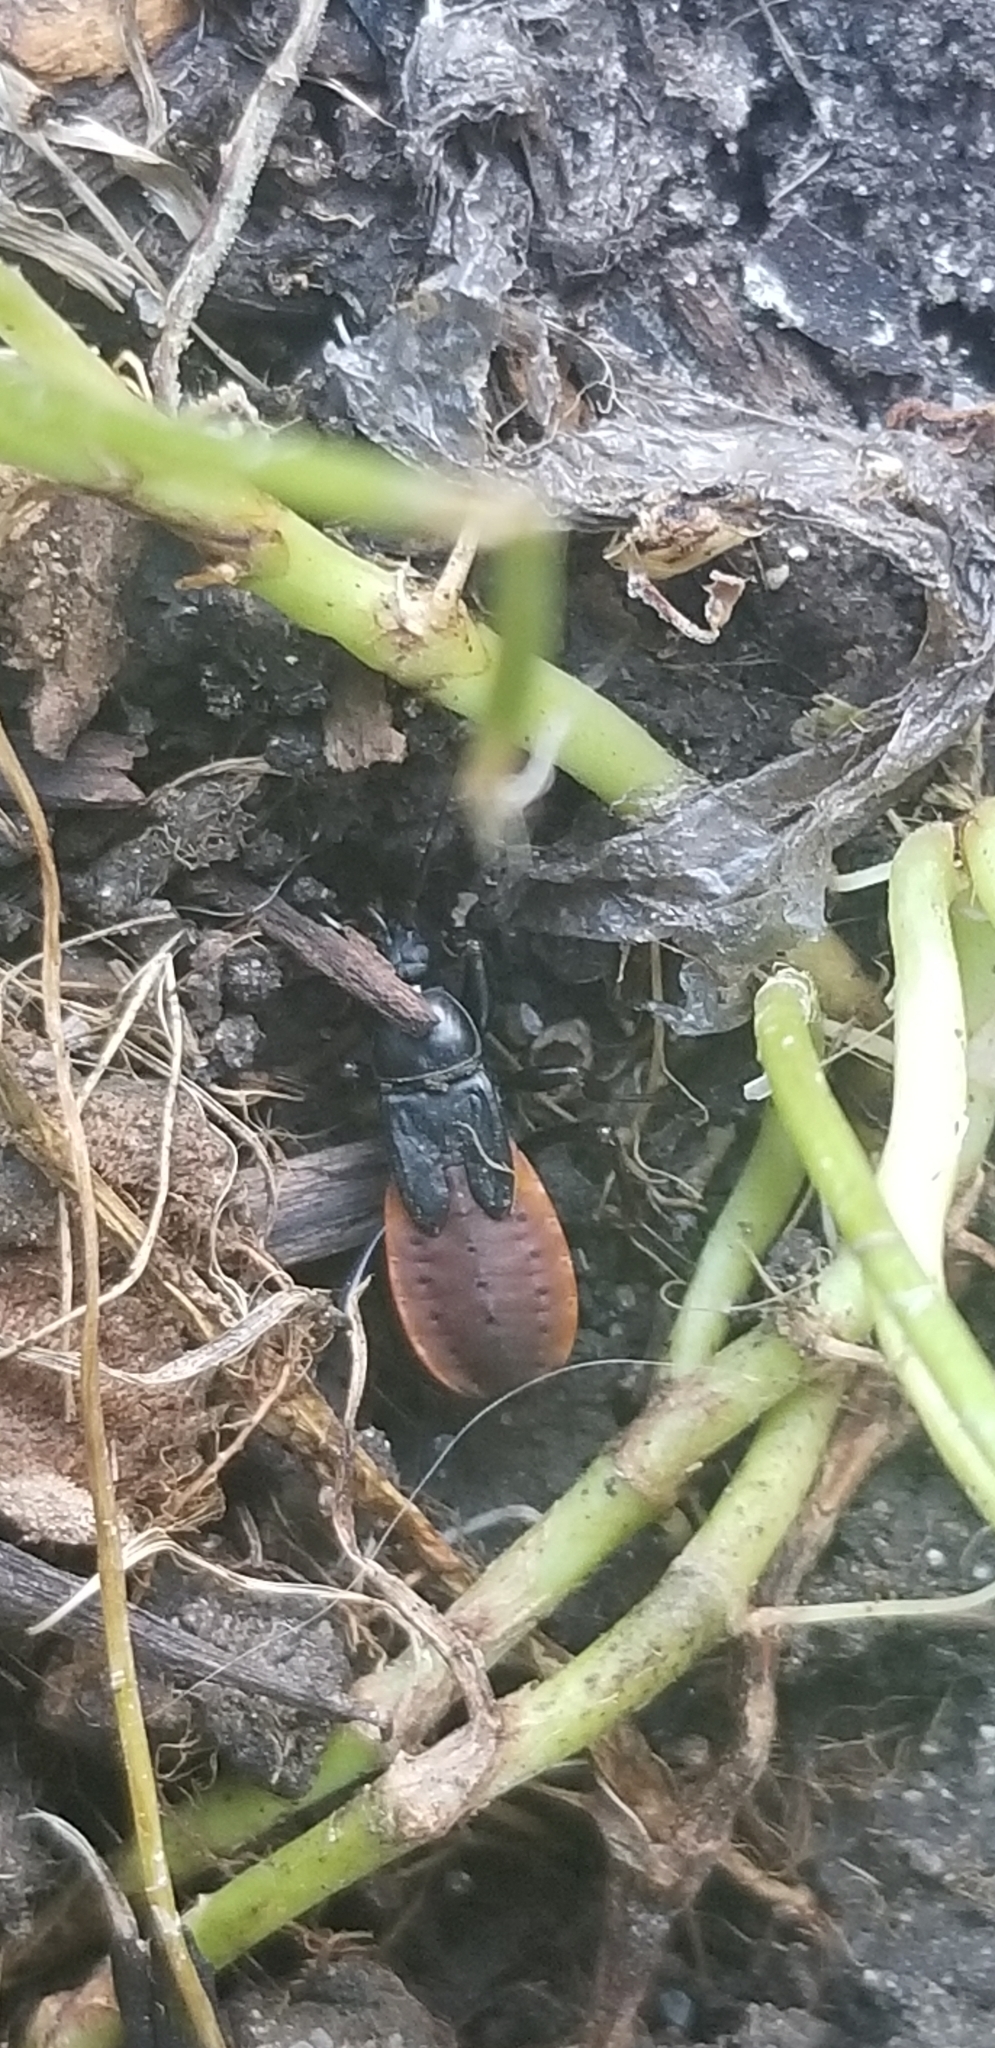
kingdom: Animalia
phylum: Arthropoda
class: Insecta
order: Hemiptera
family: Reduviidae
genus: Melanolestes
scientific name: Melanolestes picipes
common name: Assassin bug
